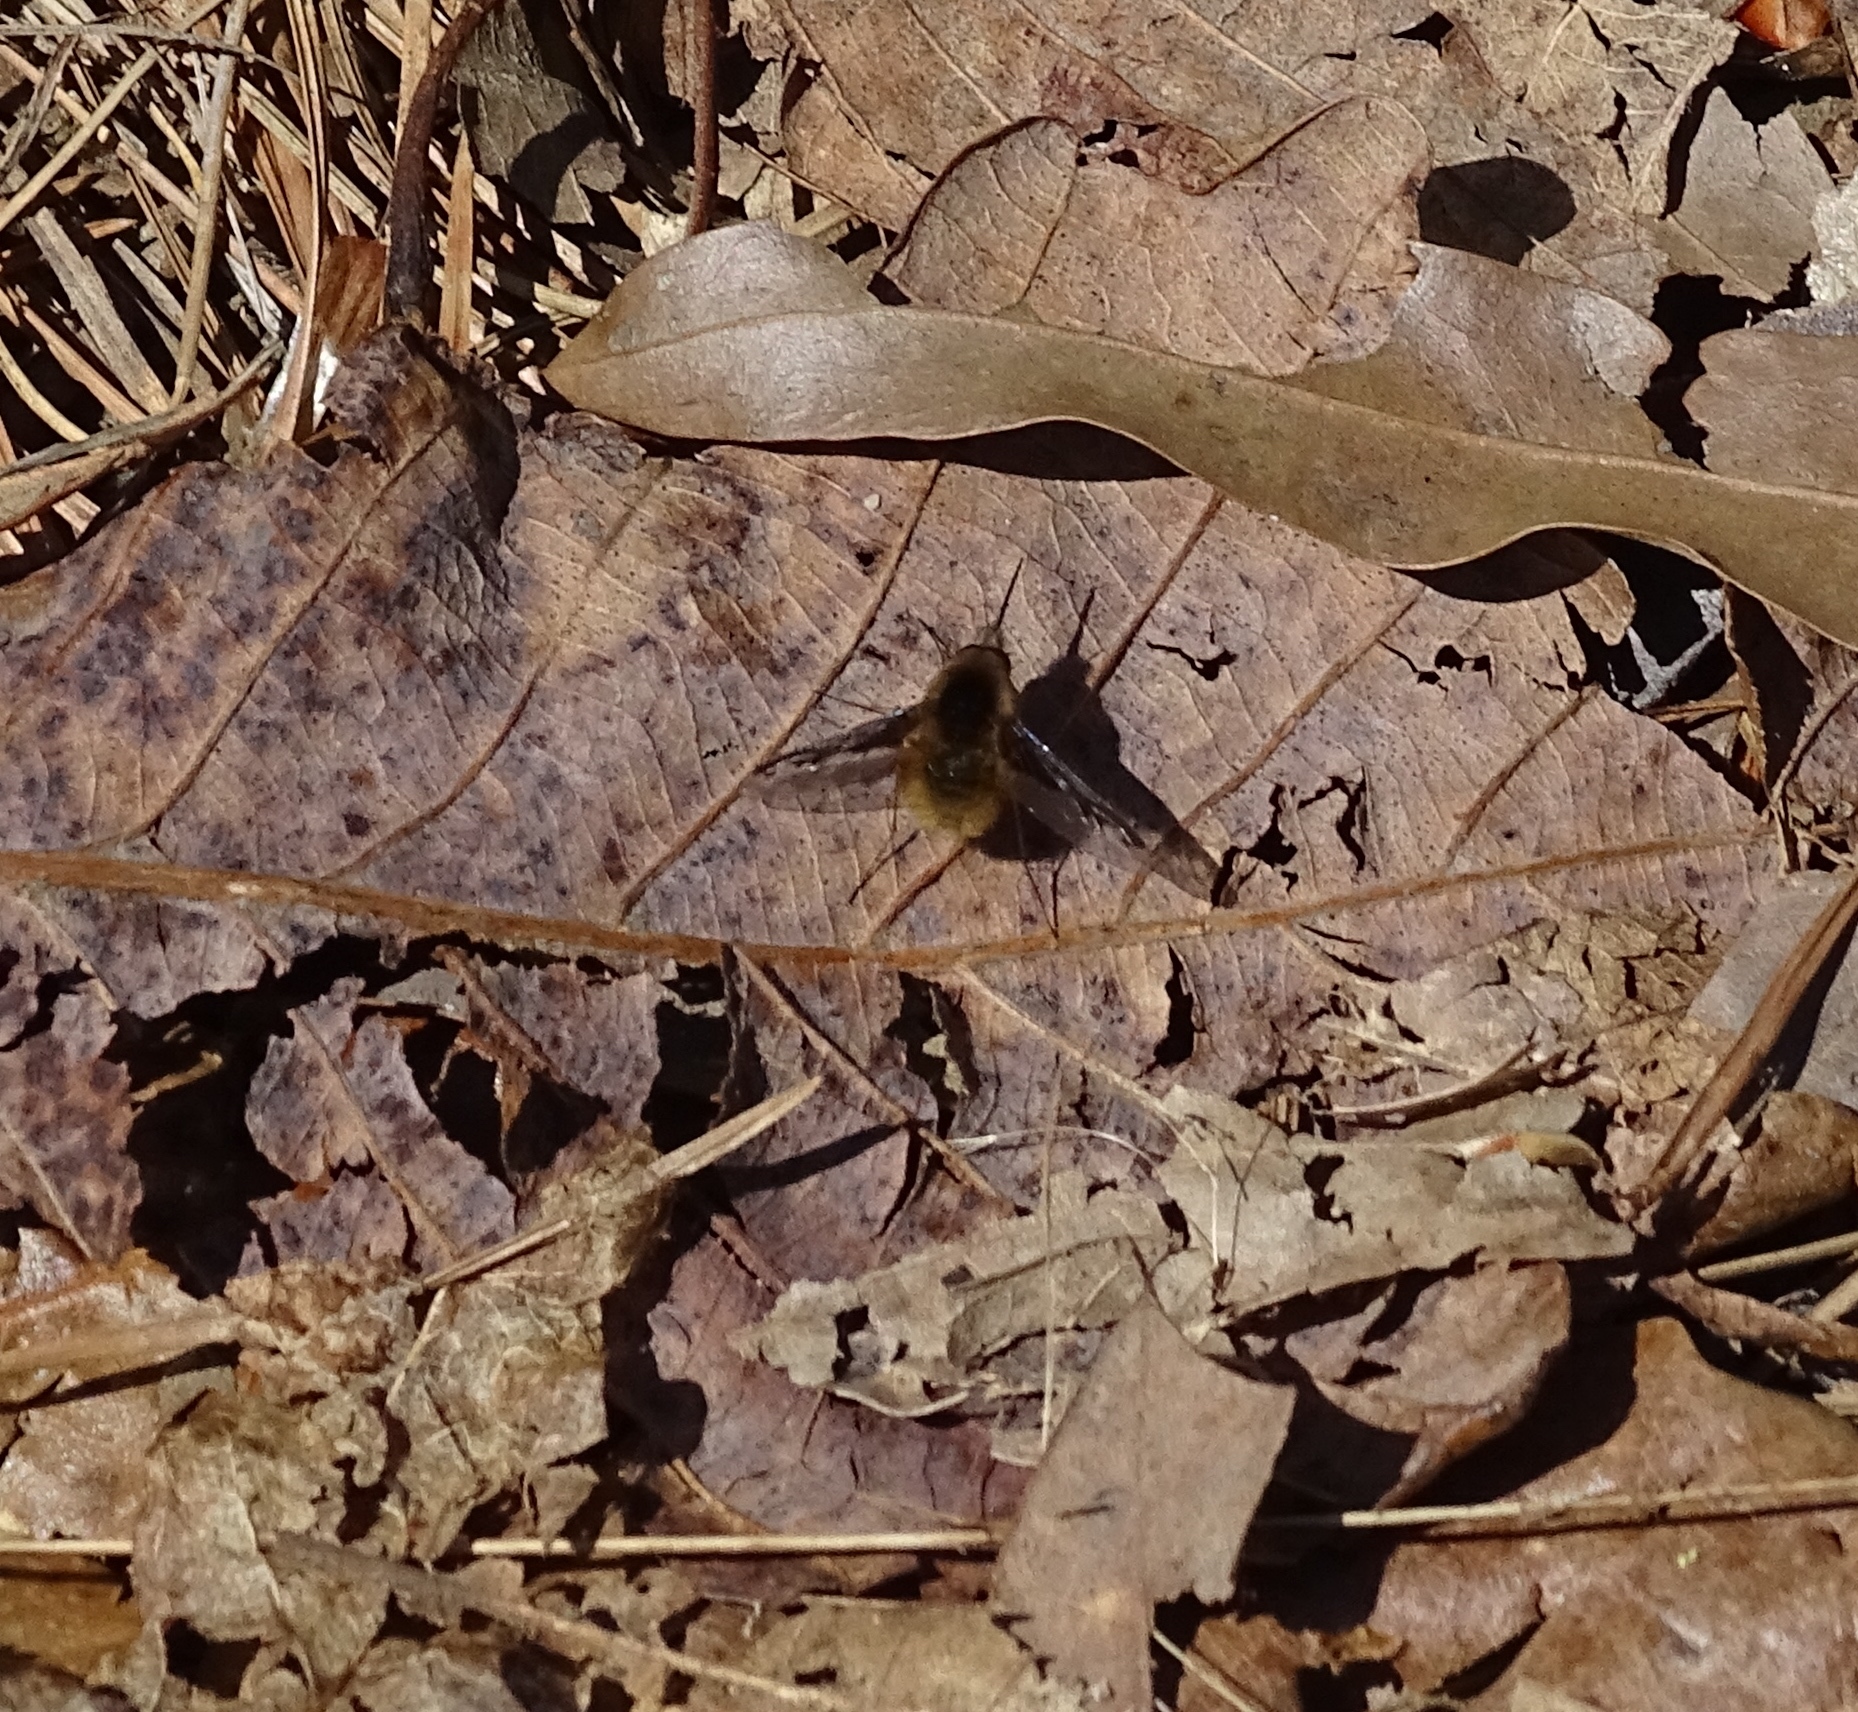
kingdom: Animalia
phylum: Arthropoda
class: Insecta
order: Diptera
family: Bombyliidae
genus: Bombylius
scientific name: Bombylius major
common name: Bee fly
